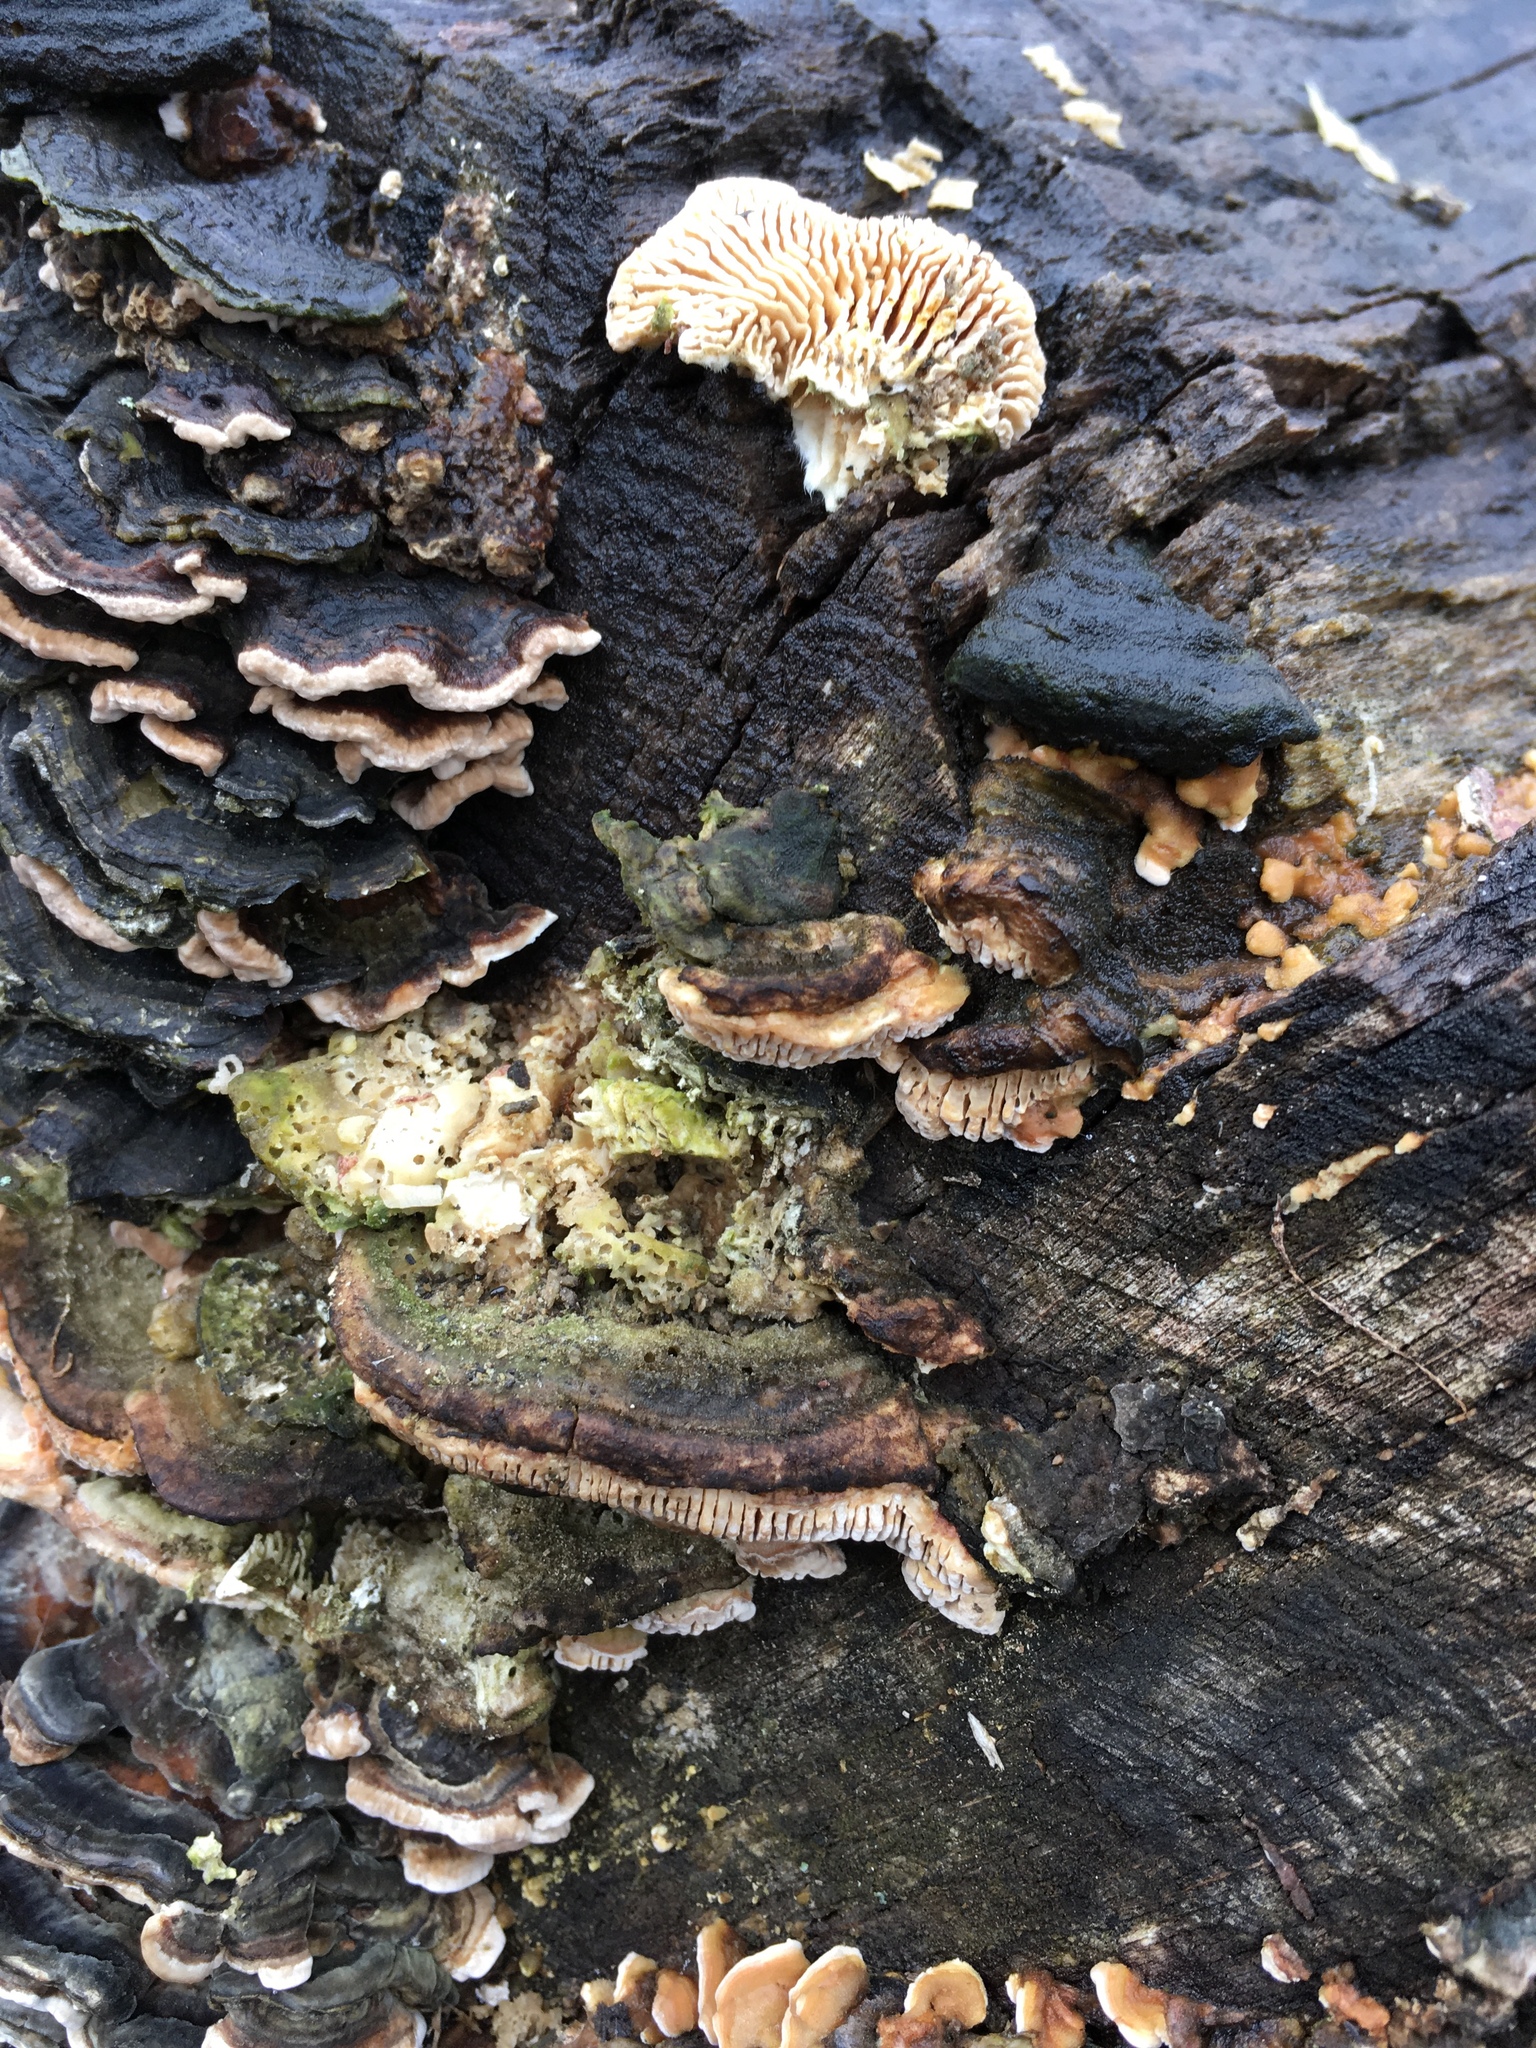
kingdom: Fungi
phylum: Basidiomycota
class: Agaricomycetes
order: Polyporales
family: Polyporaceae
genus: Lenzites
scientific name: Lenzites betulinus
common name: Birch mazegill
